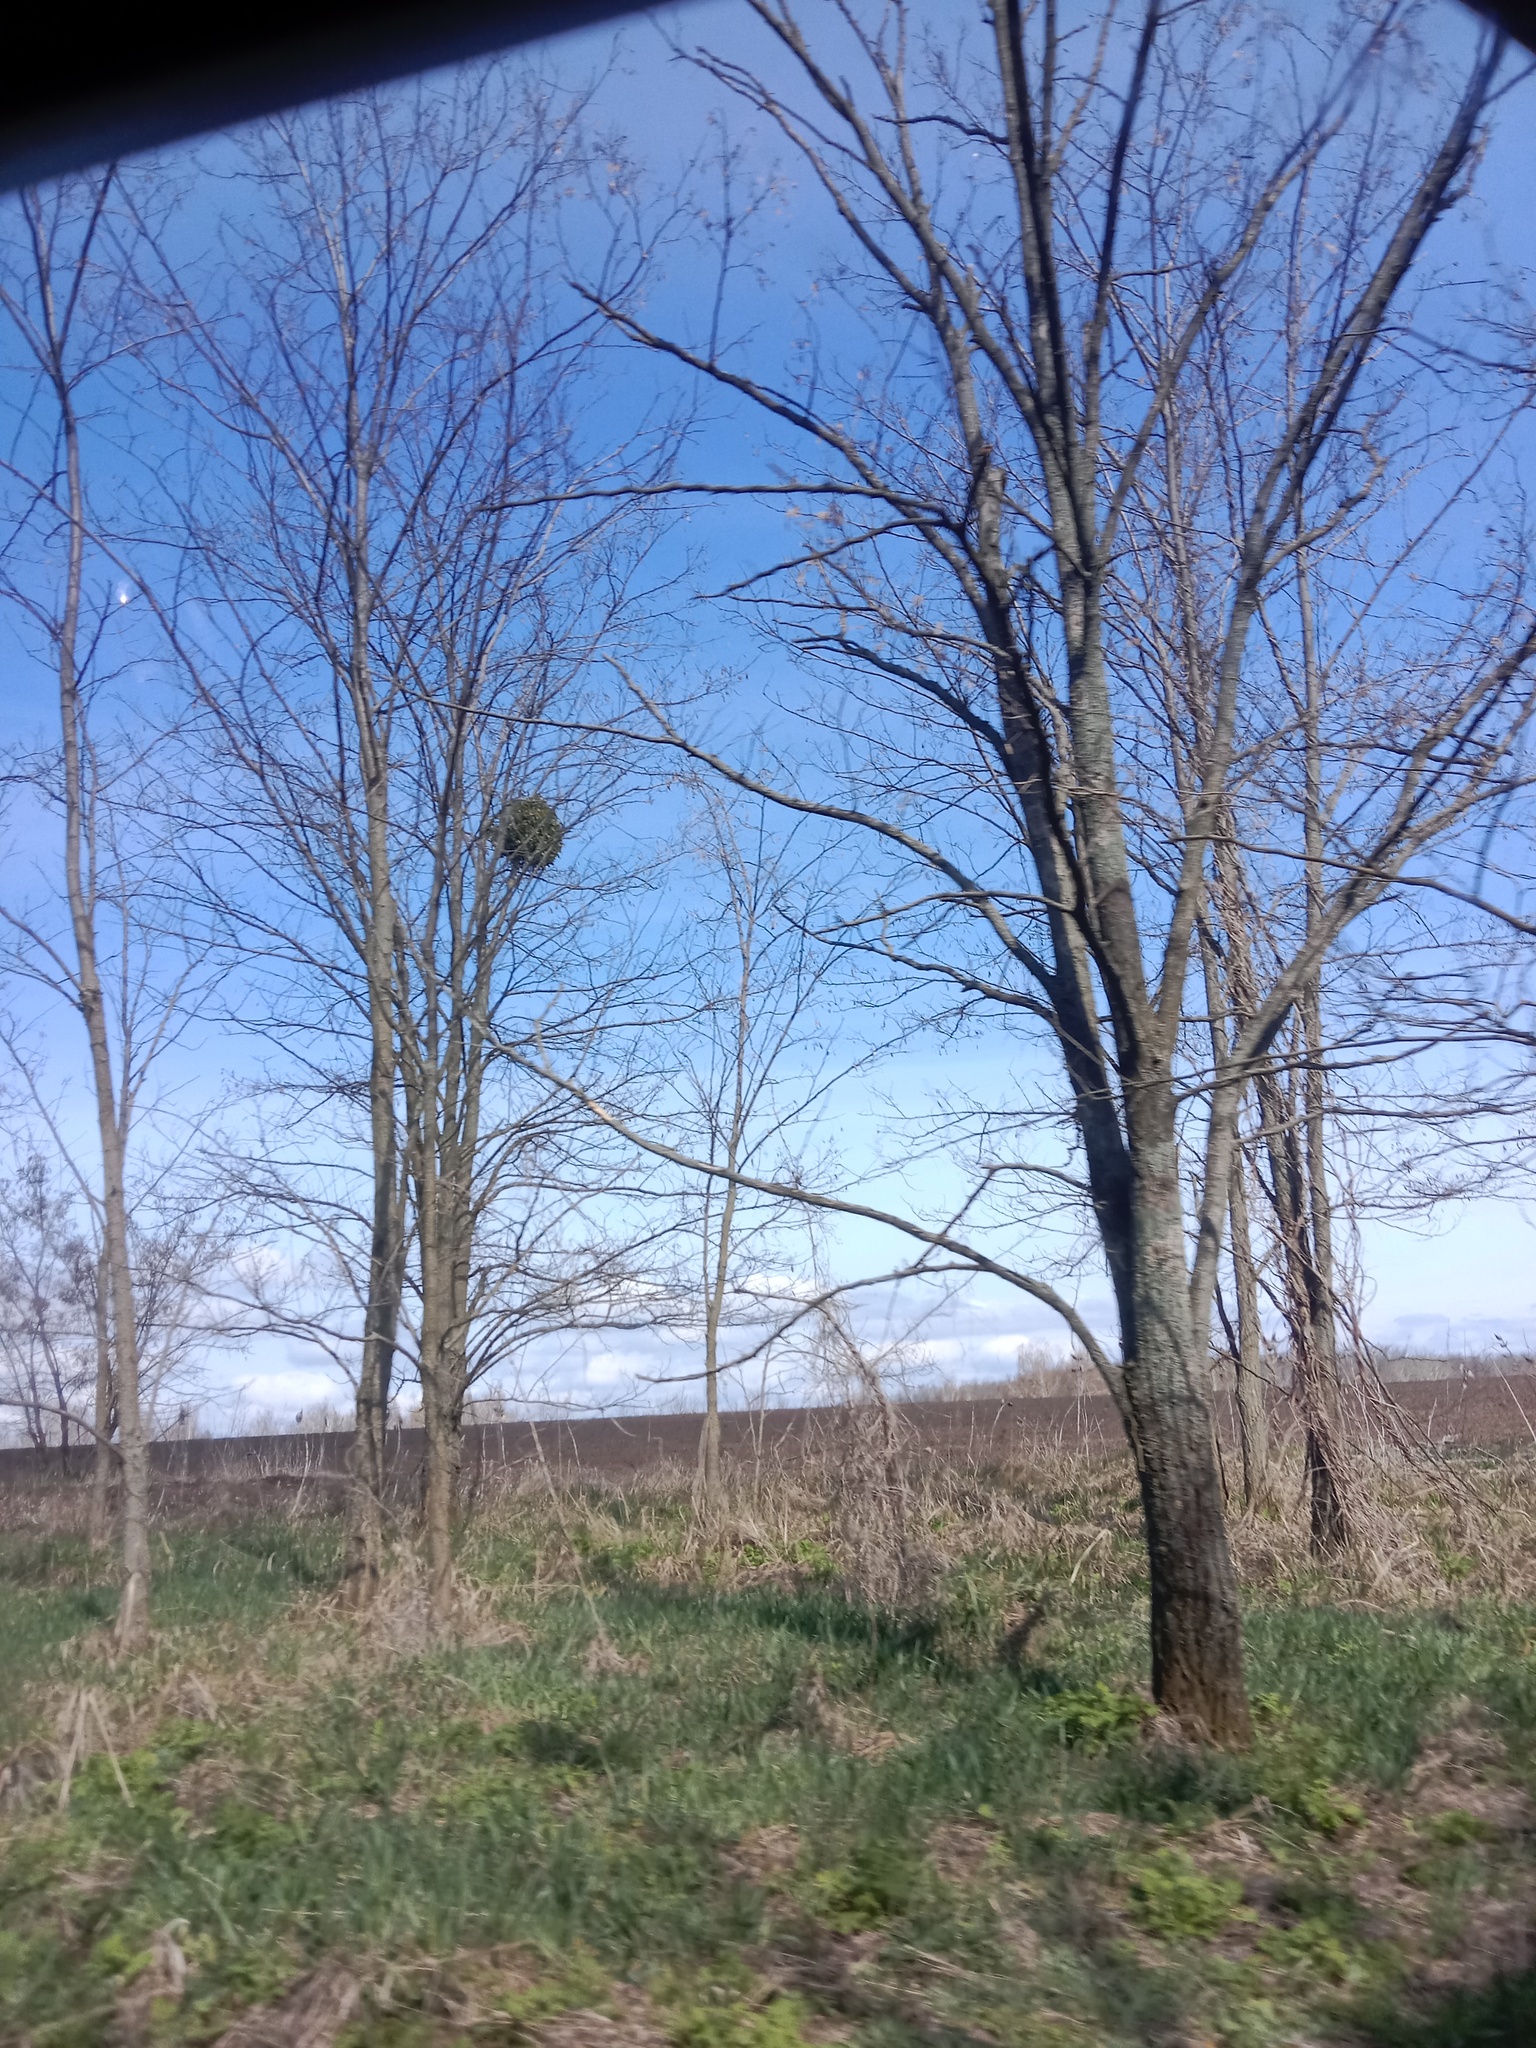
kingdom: Plantae
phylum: Tracheophyta
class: Magnoliopsida
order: Santalales
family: Viscaceae
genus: Viscum
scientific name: Viscum album
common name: Mistletoe
